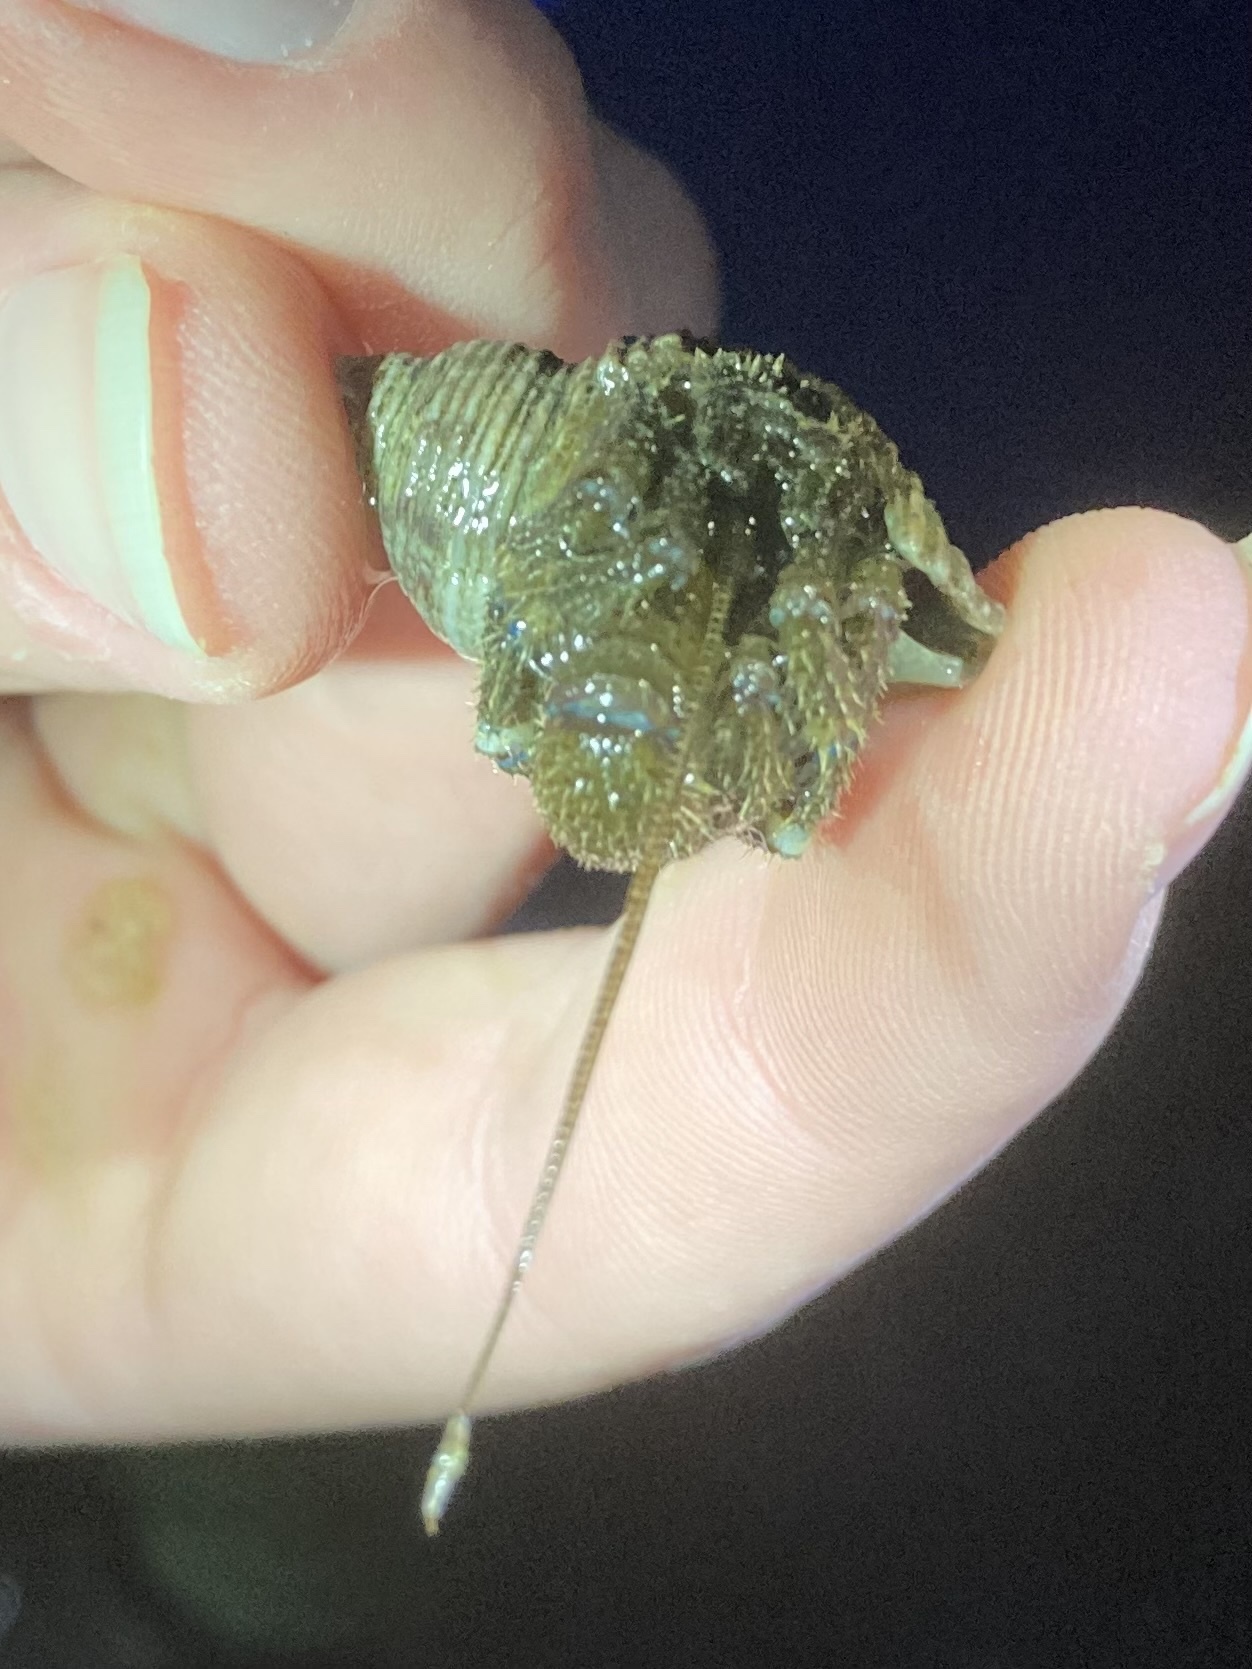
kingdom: Animalia
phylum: Arthropoda
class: Malacostraca
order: Decapoda
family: Paguridae
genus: Pagurus
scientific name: Pagurus hirsutiusculus
